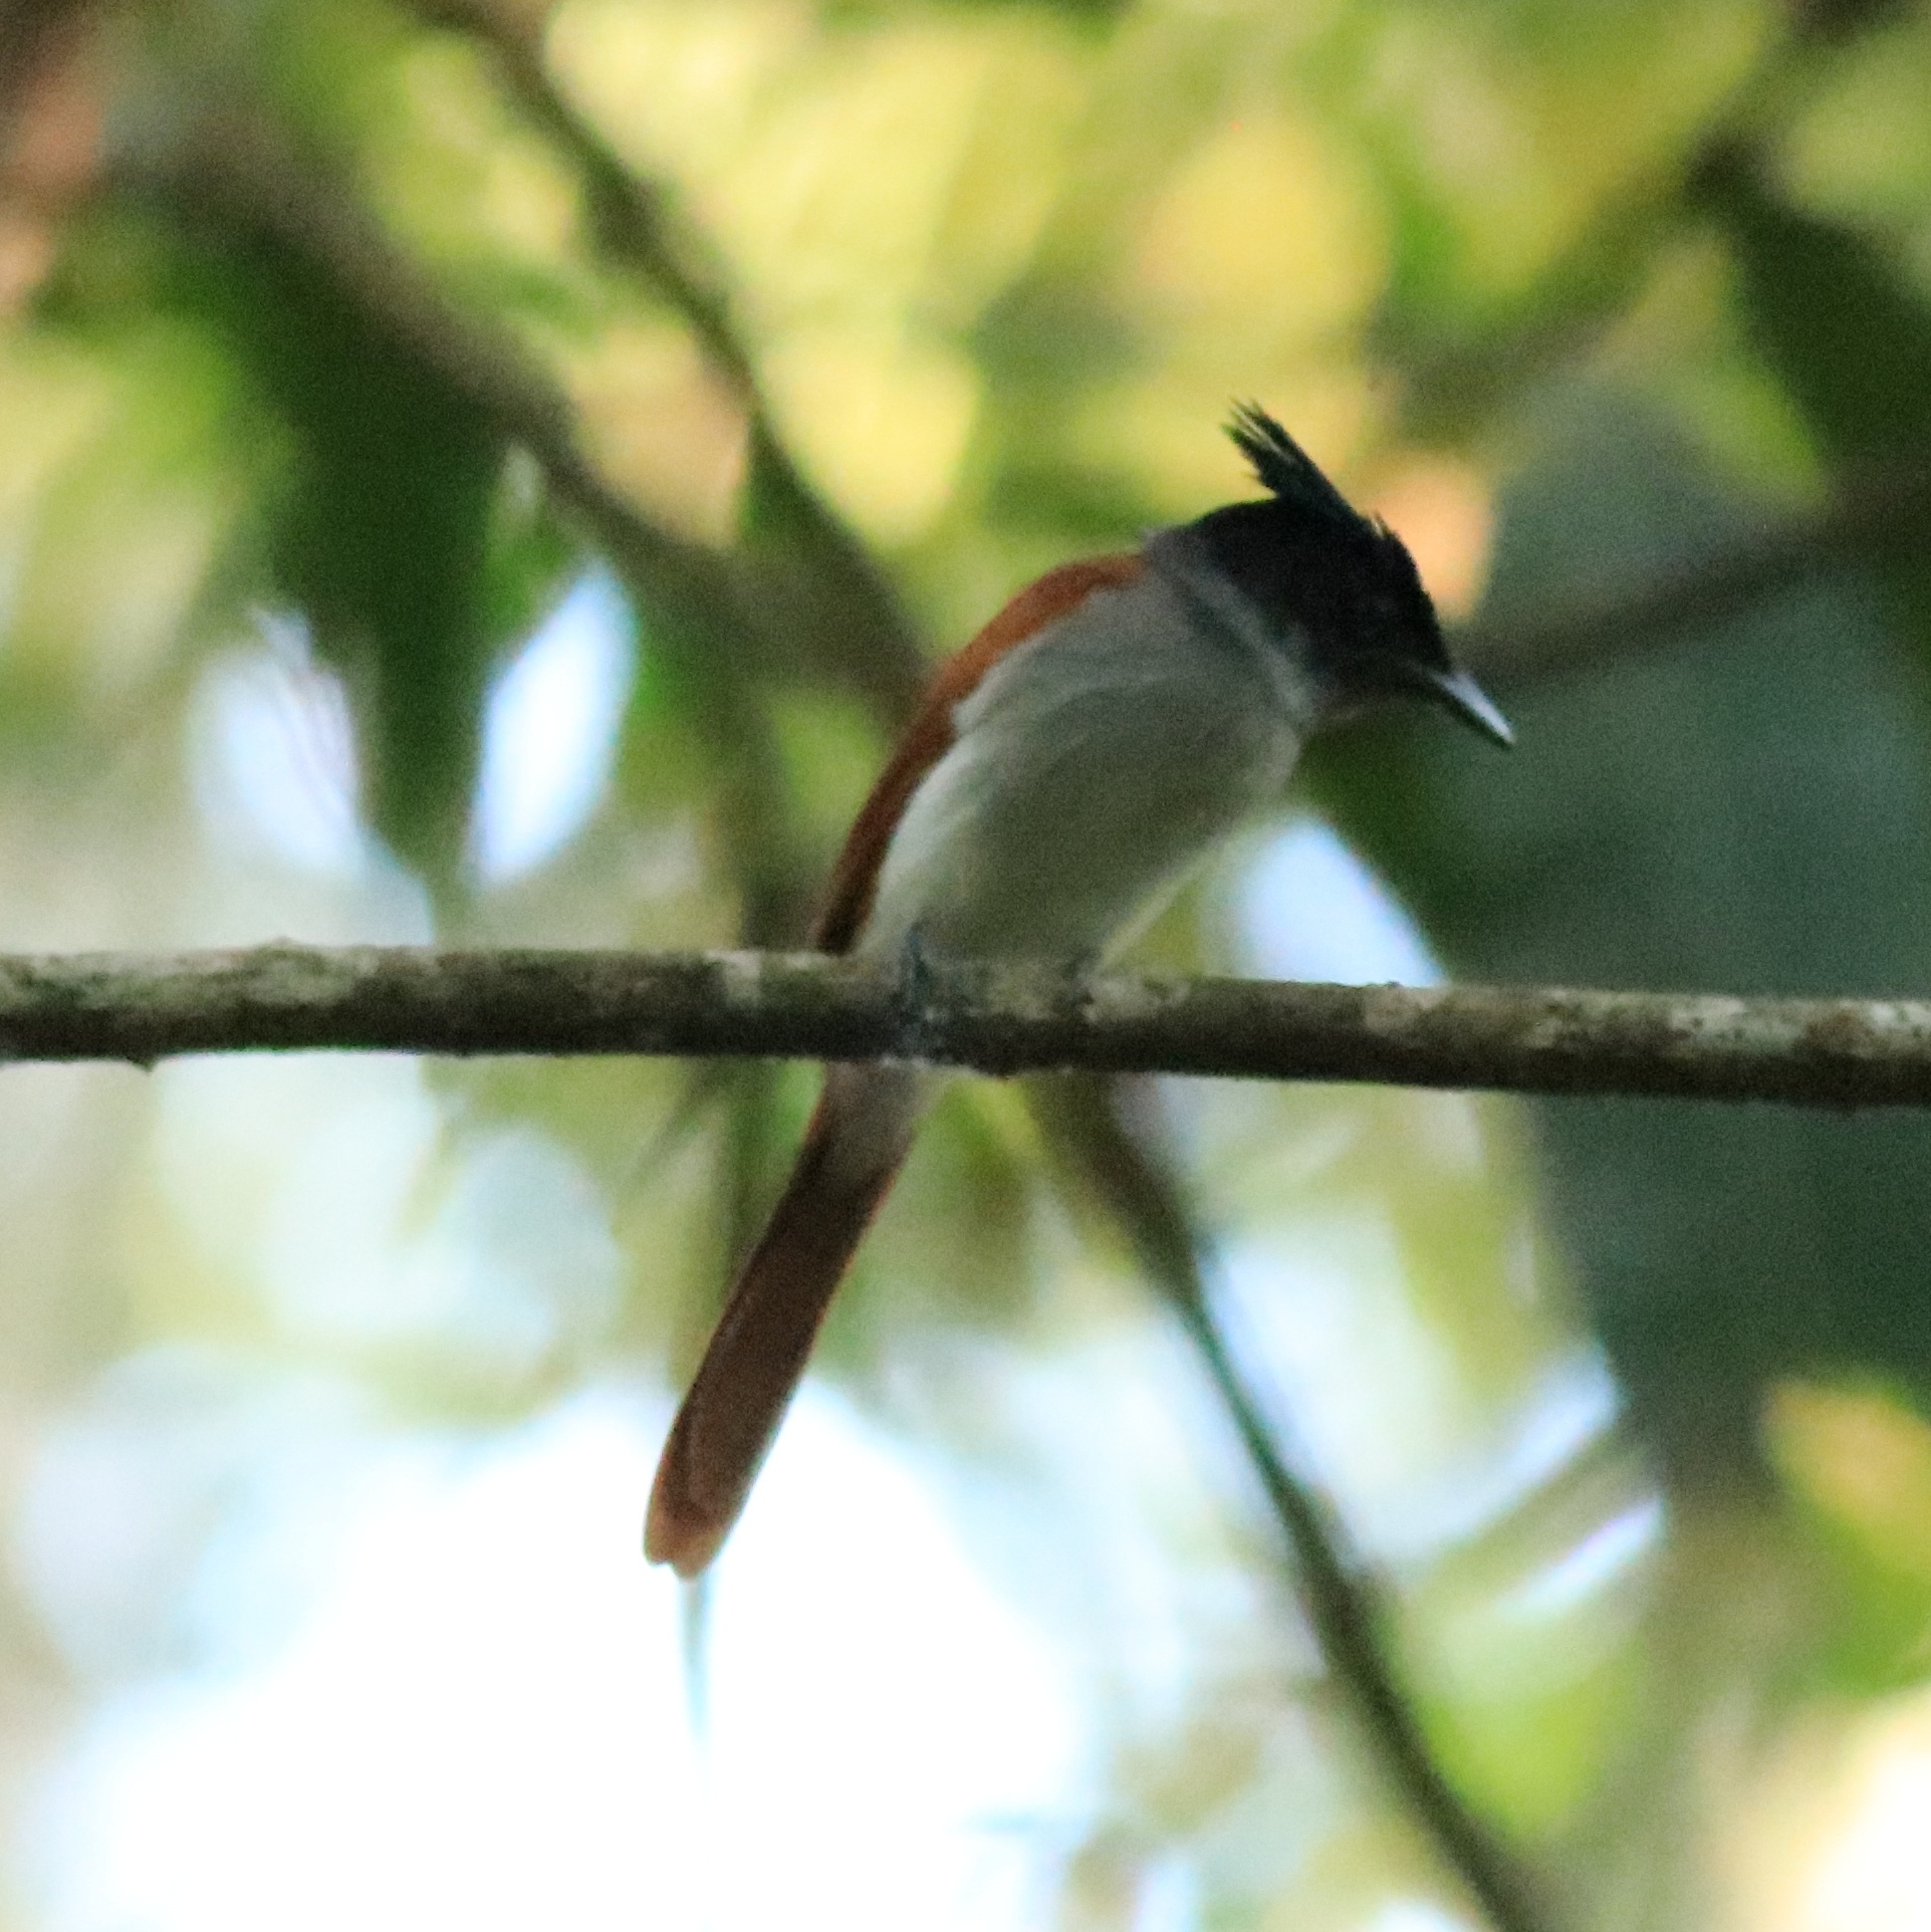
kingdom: Animalia
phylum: Chordata
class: Aves
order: Passeriformes
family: Monarchidae
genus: Terpsiphone
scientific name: Terpsiphone paradisi
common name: Indian paradise flycatcher
